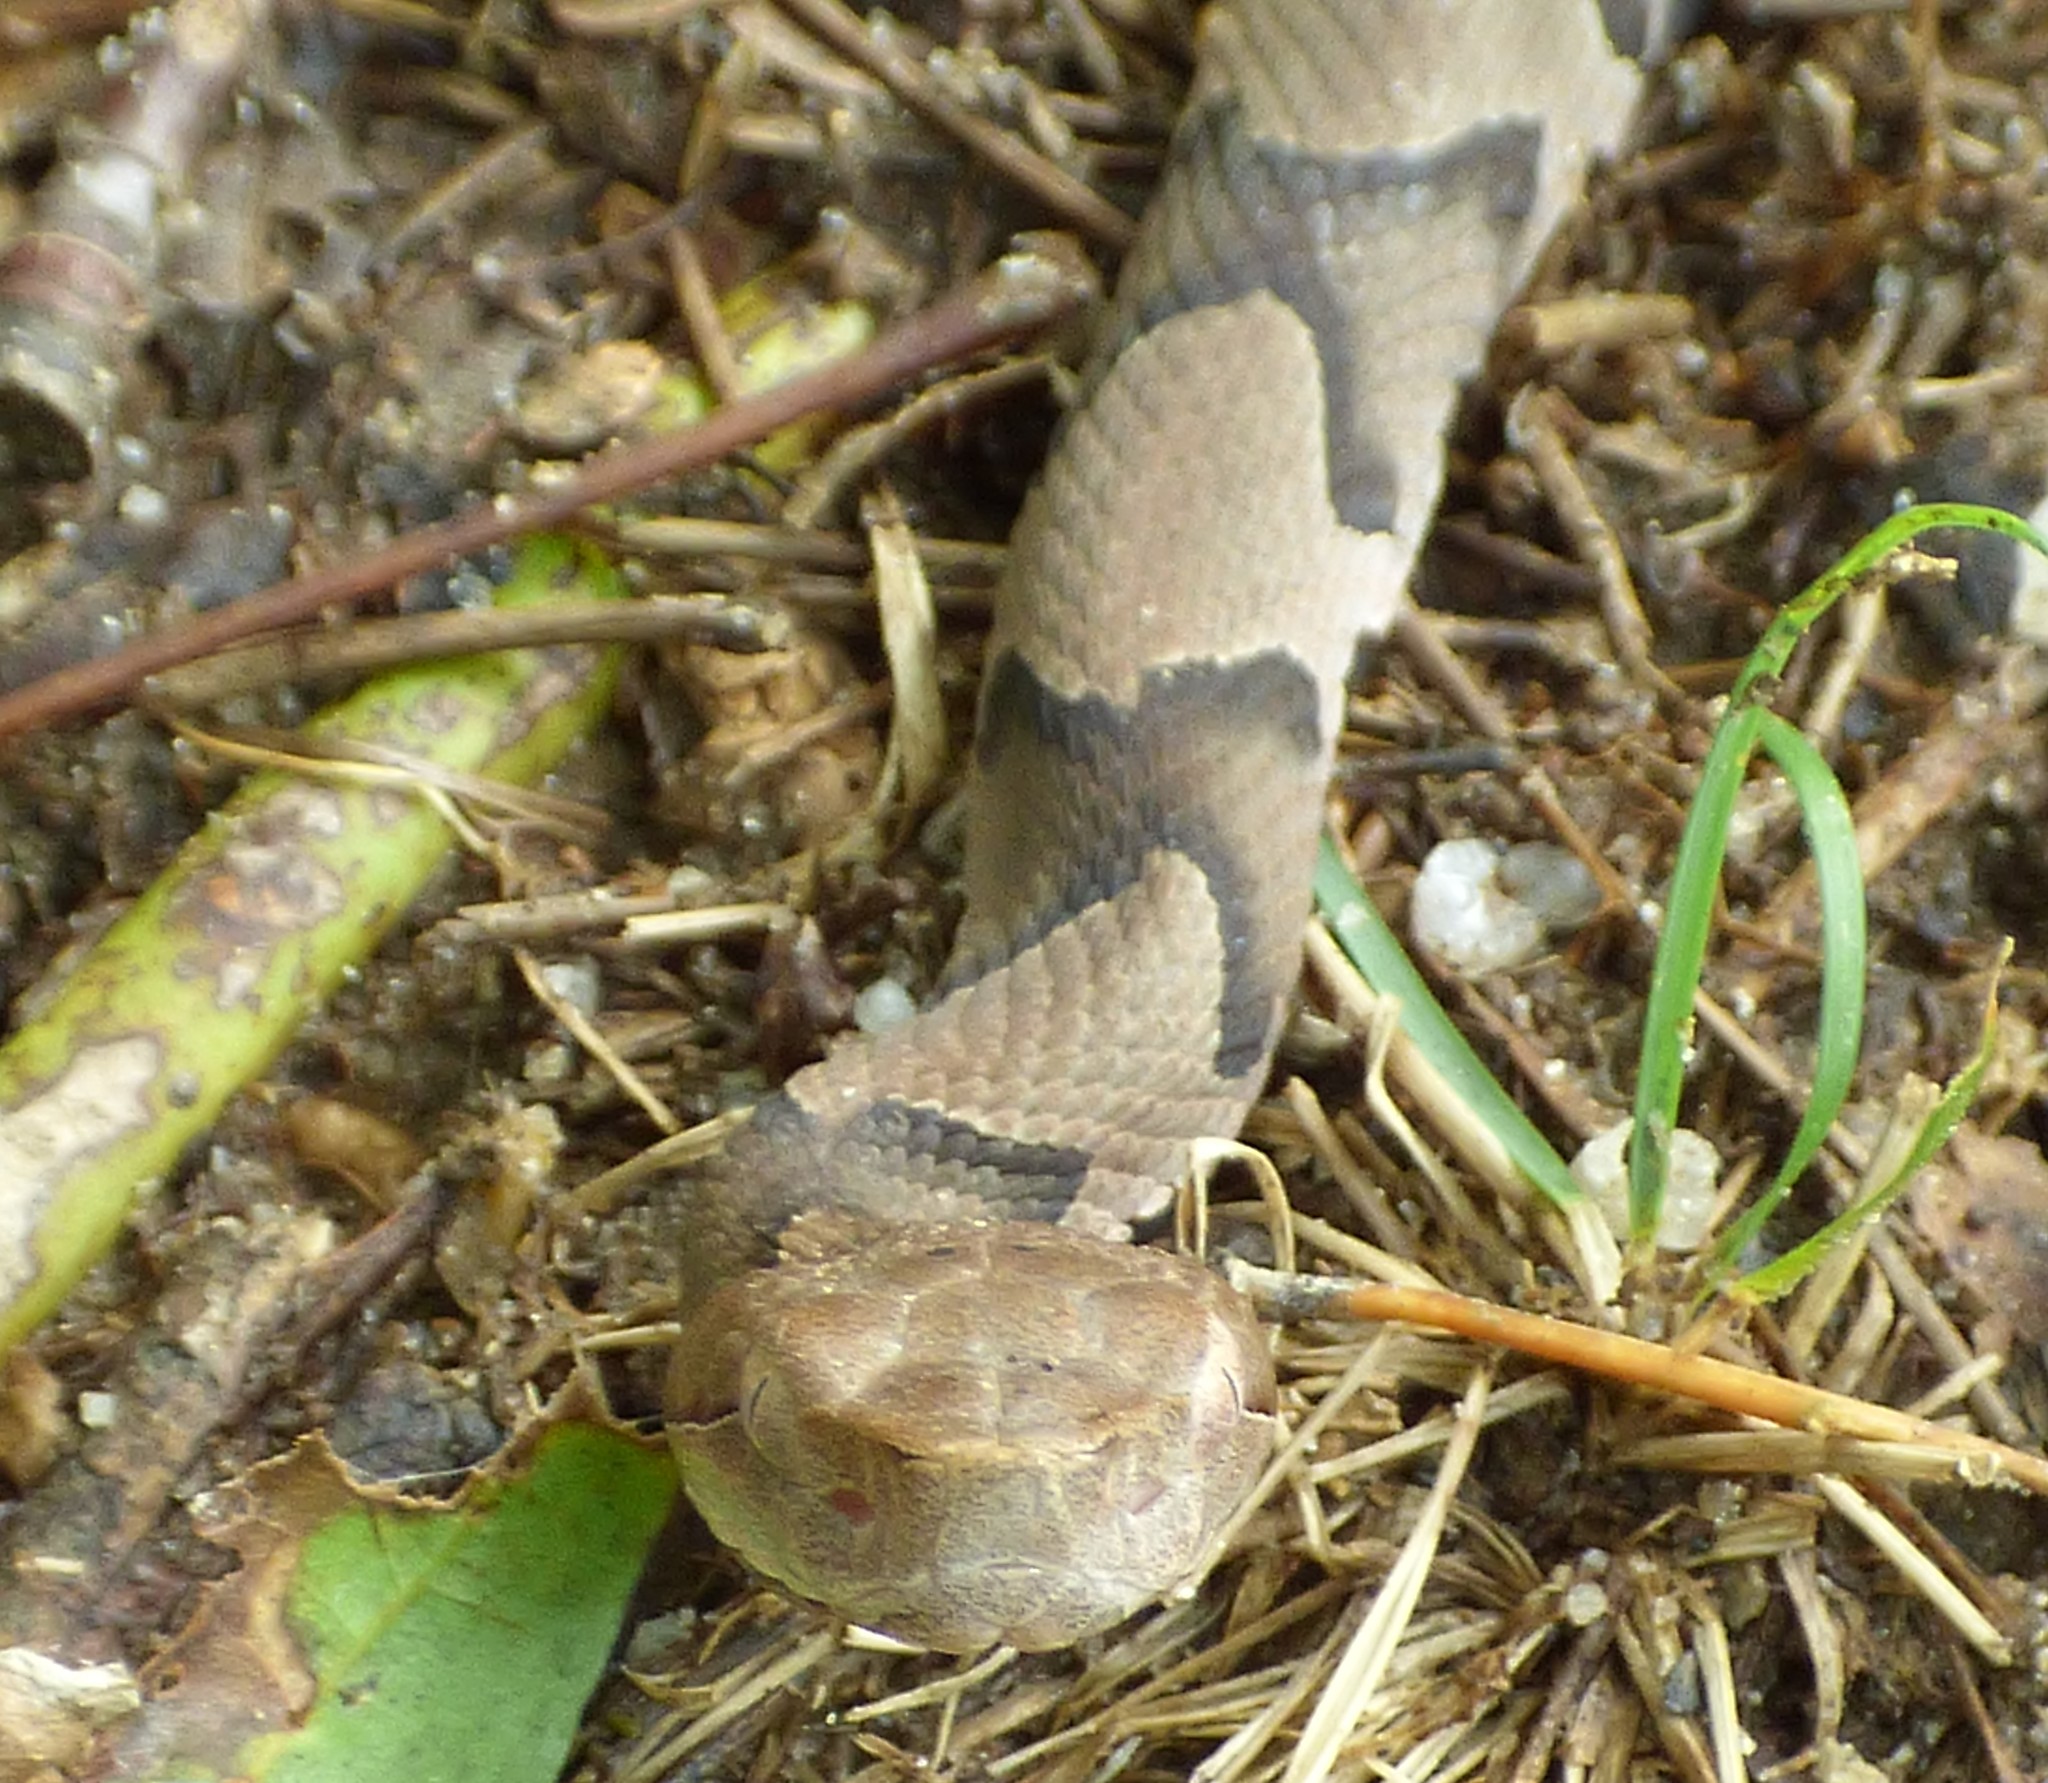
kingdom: Animalia
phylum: Chordata
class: Squamata
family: Viperidae
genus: Agkistrodon
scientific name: Agkistrodon contortrix
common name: Northern copperhead
